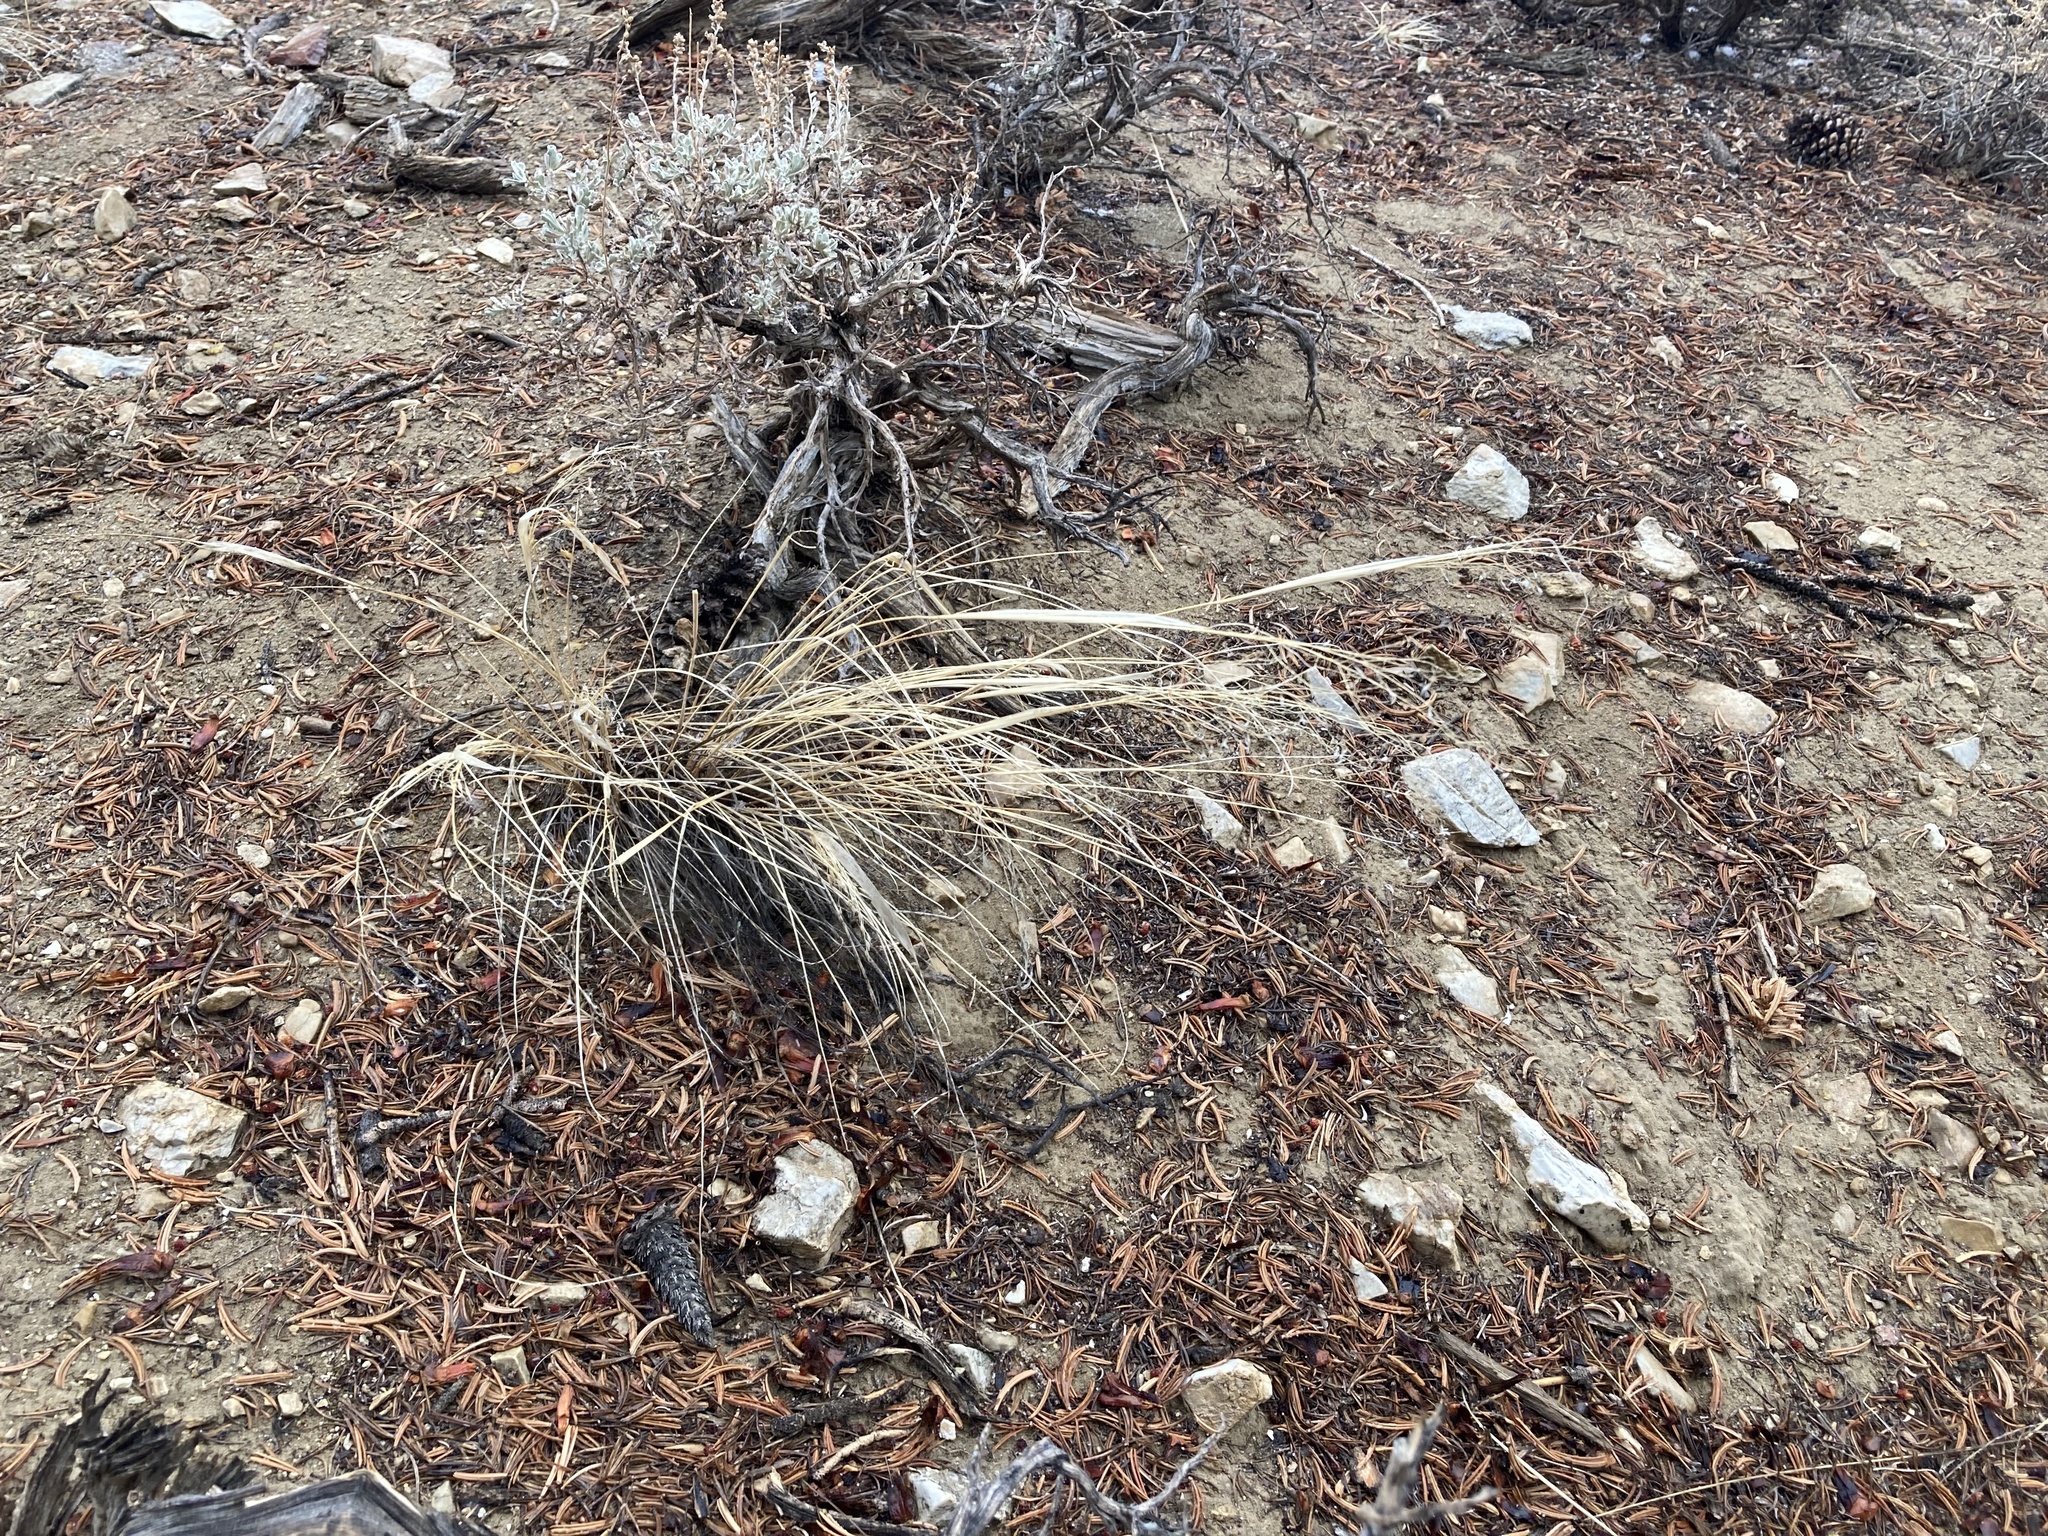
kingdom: Plantae
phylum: Tracheophyta
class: Liliopsida
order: Poales
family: Poaceae
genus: Eriocoma
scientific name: Eriocoma hymenoides
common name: Indian mountain ricegrass
